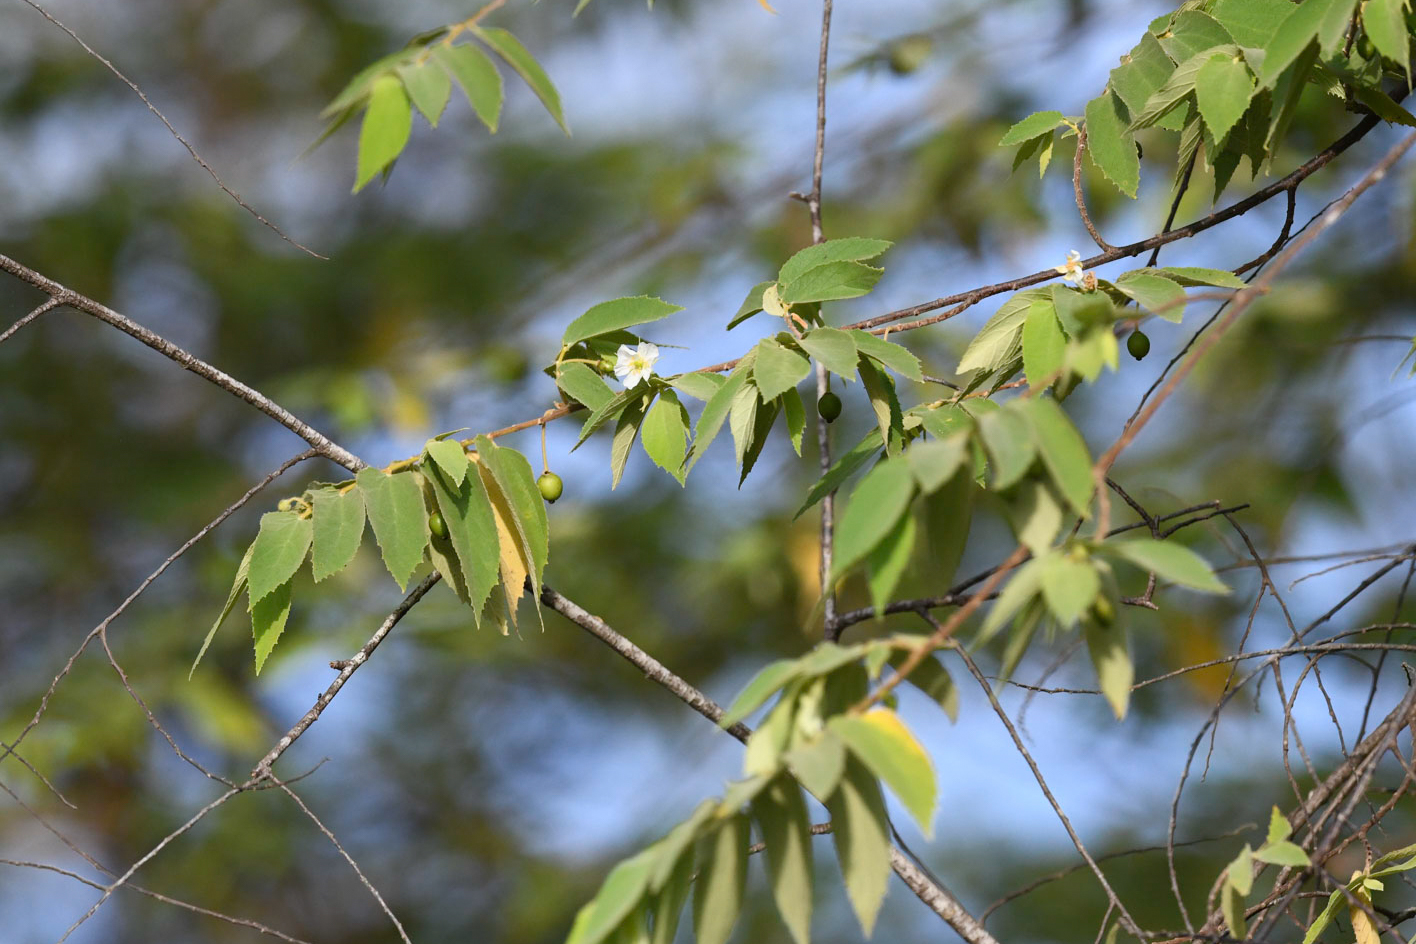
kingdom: Plantae
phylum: Tracheophyta
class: Magnoliopsida
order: Malvales
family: Muntingiaceae
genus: Muntingia
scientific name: Muntingia calabura
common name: Strawberrytree
